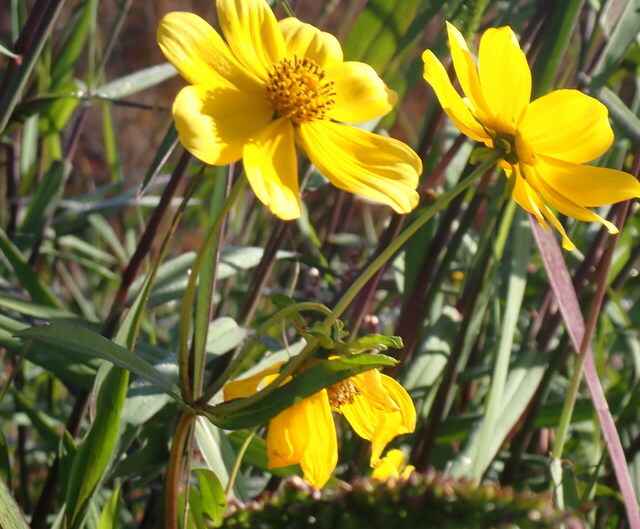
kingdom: Plantae
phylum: Tracheophyta
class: Magnoliopsida
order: Asterales
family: Asteraceae
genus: Bidens
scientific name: Bidens laevis
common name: Larger bur-marigold
